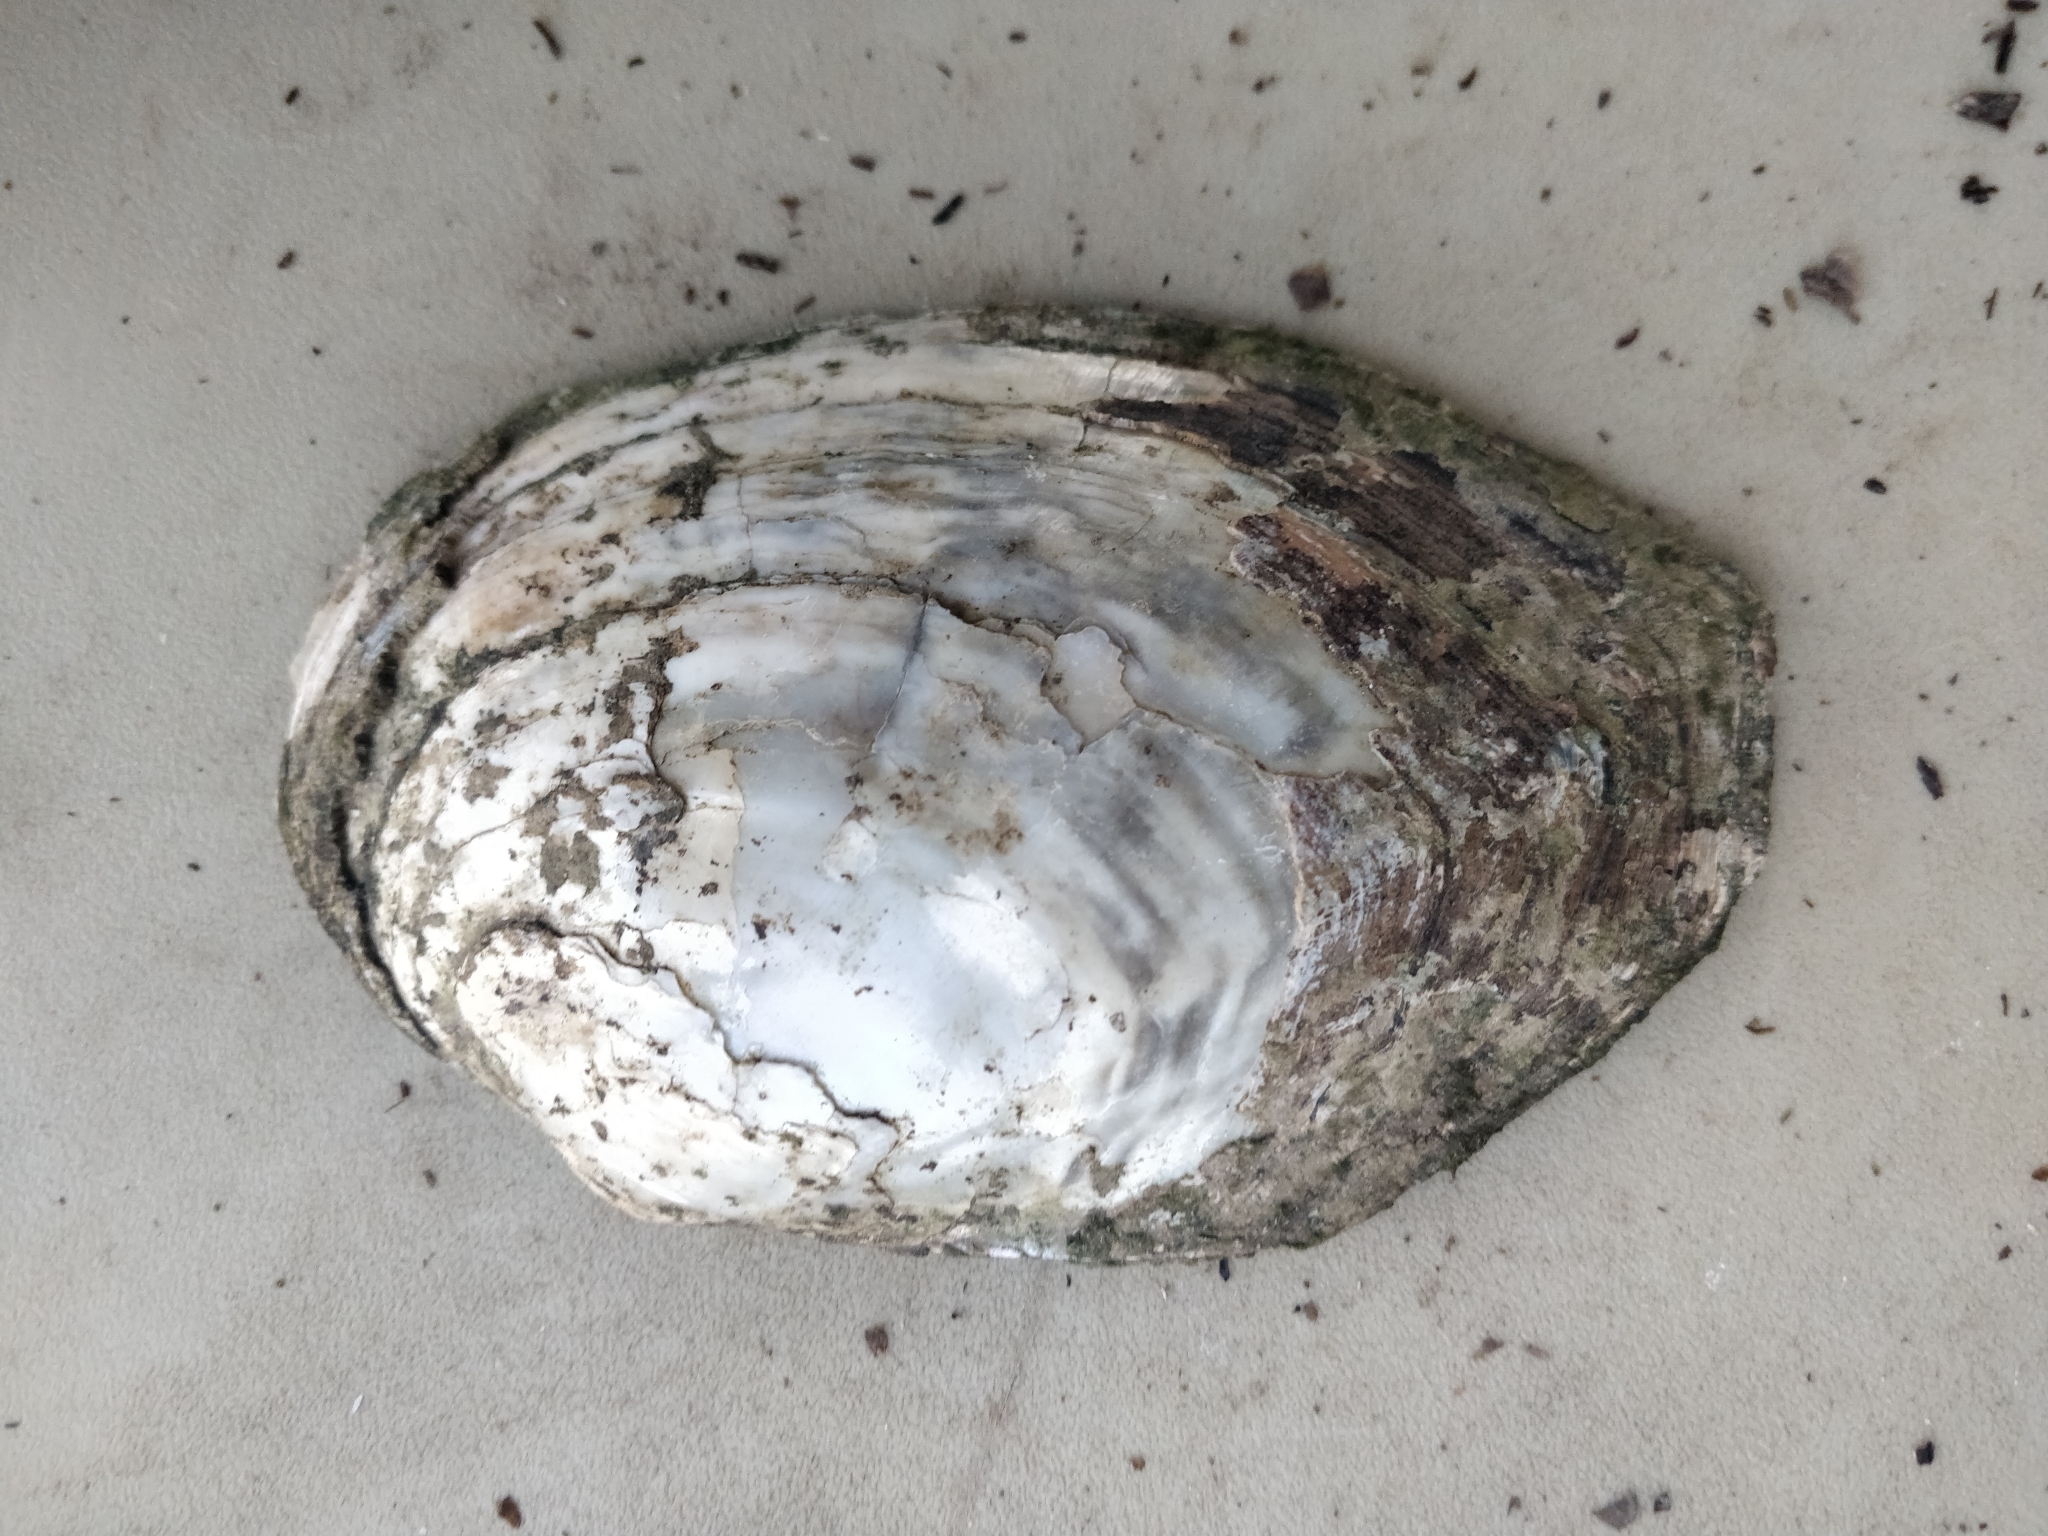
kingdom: Animalia
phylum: Mollusca
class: Bivalvia
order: Unionida
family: Unionidae
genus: Lasmigona
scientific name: Lasmigona complanata
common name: White heelsplitter
